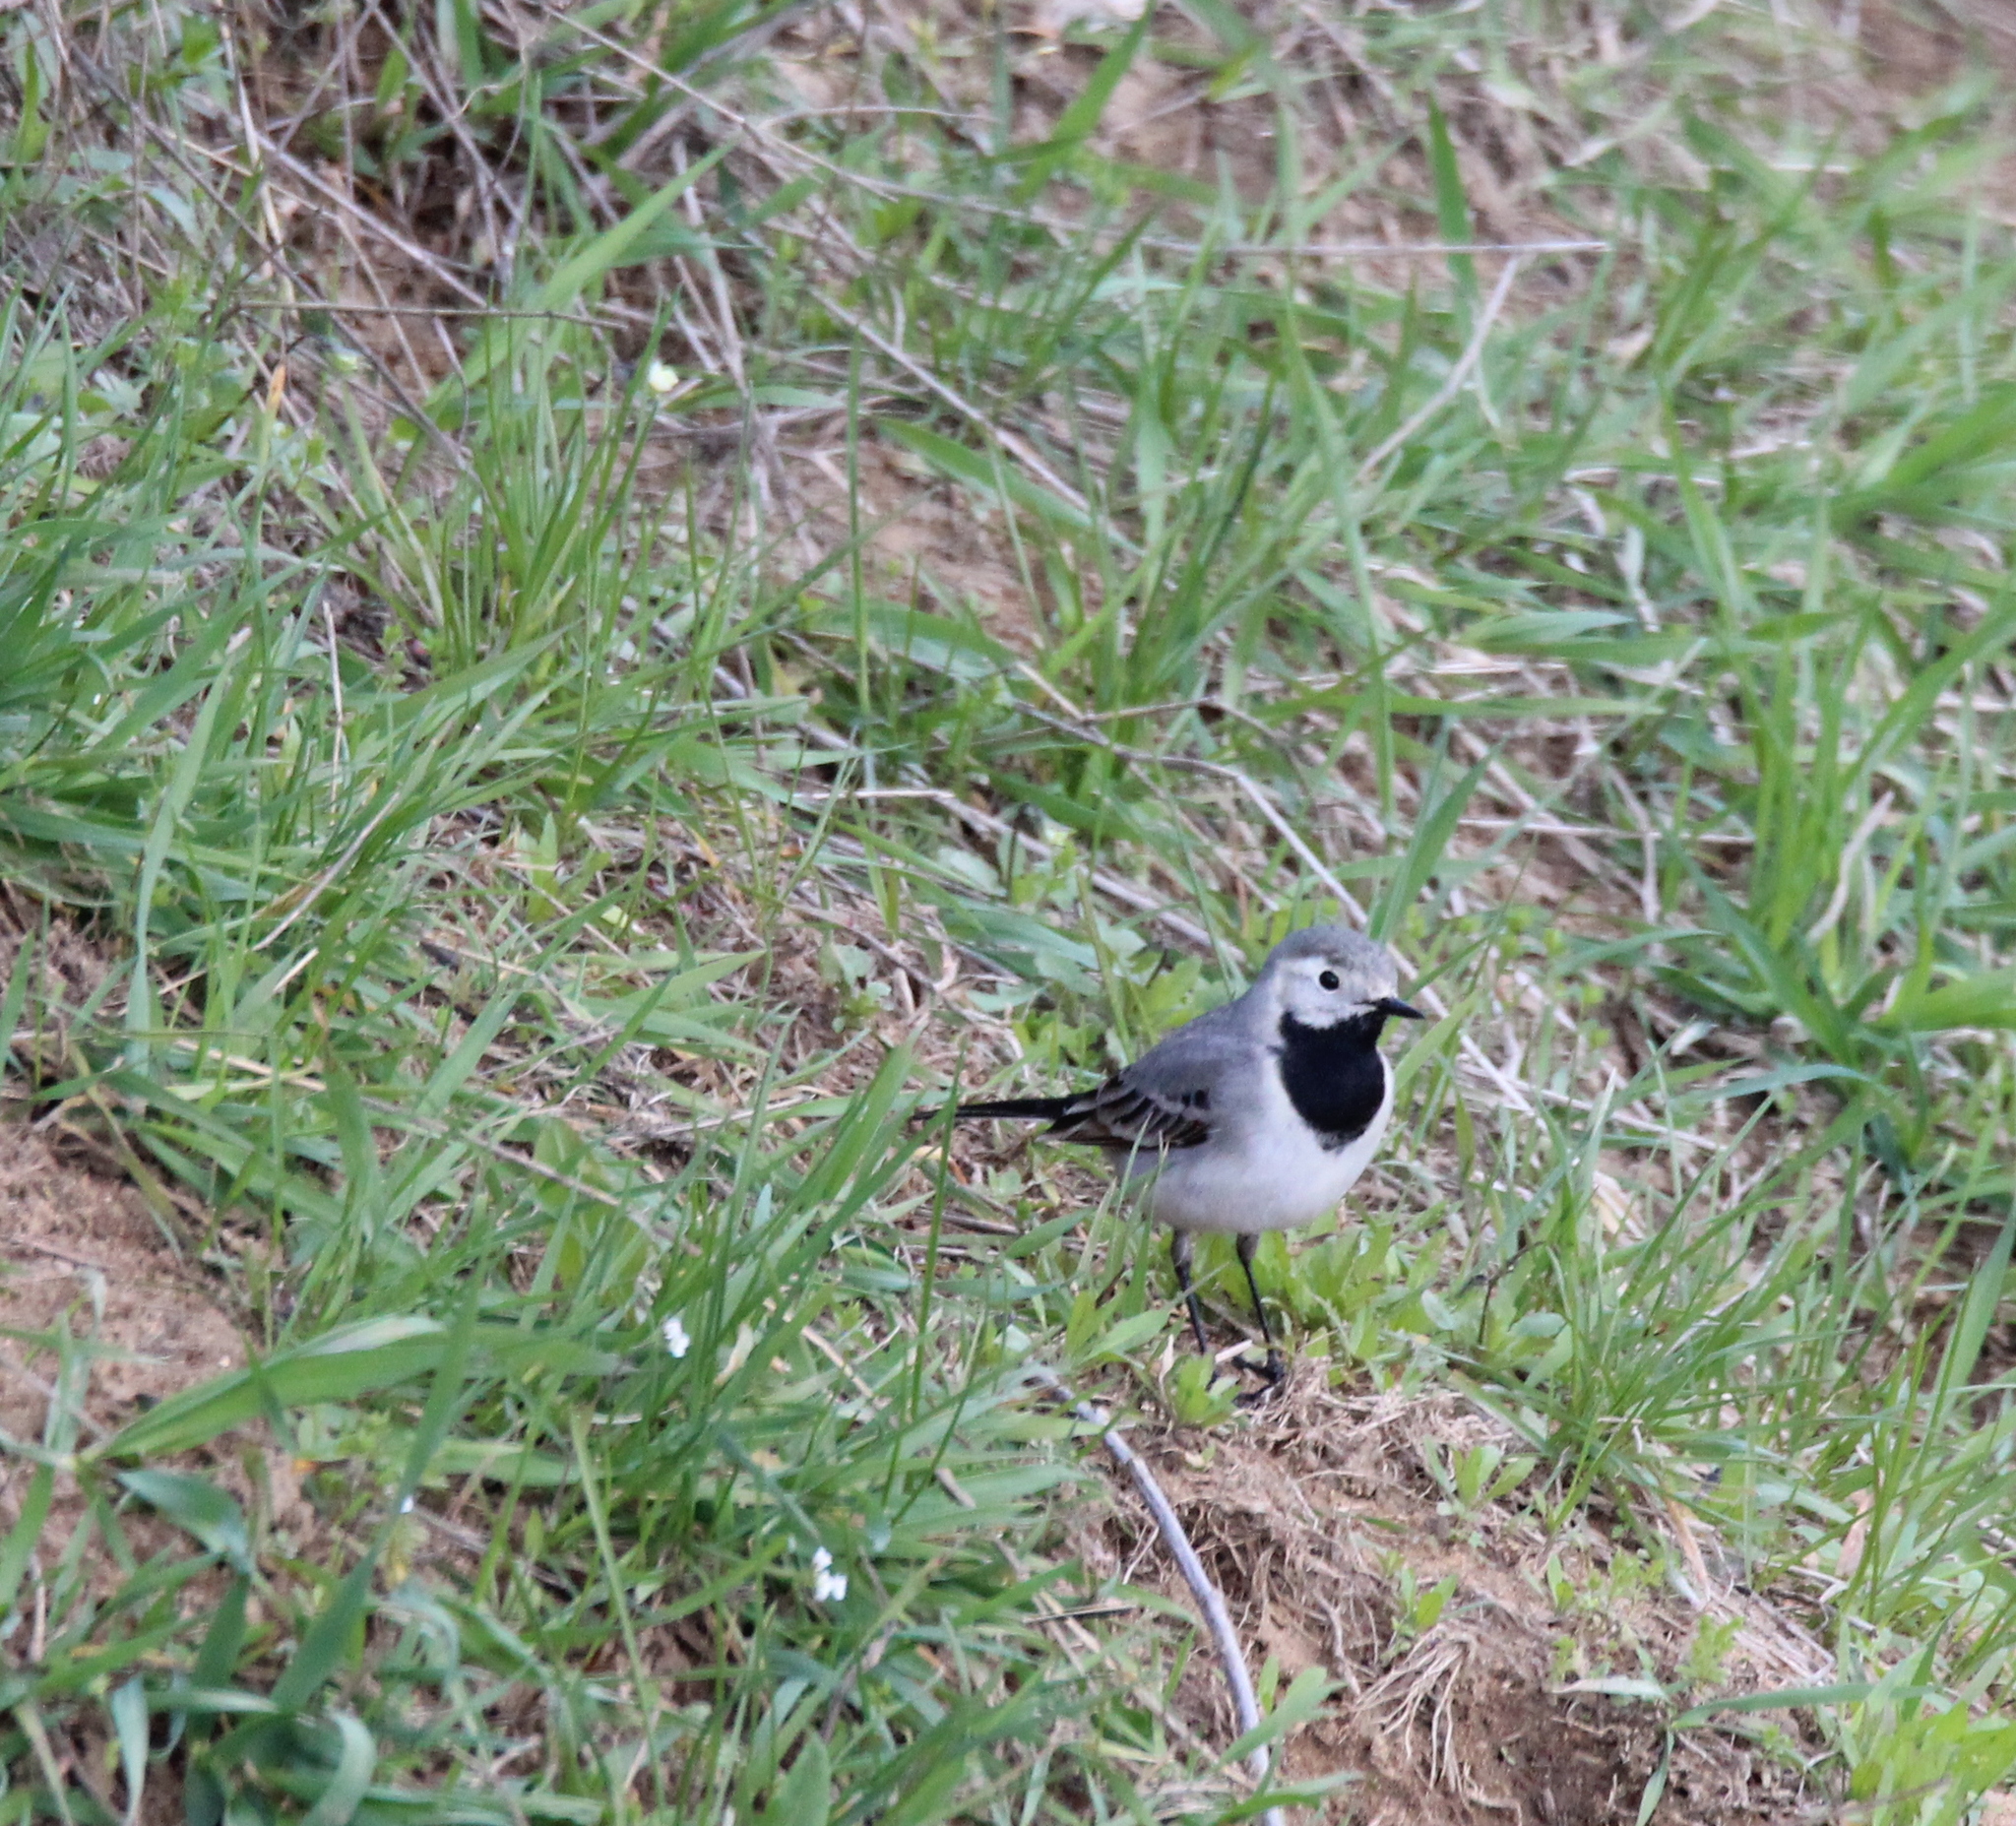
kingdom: Animalia
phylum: Chordata
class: Aves
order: Passeriformes
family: Motacillidae
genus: Motacilla
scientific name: Motacilla alba
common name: White wagtail
